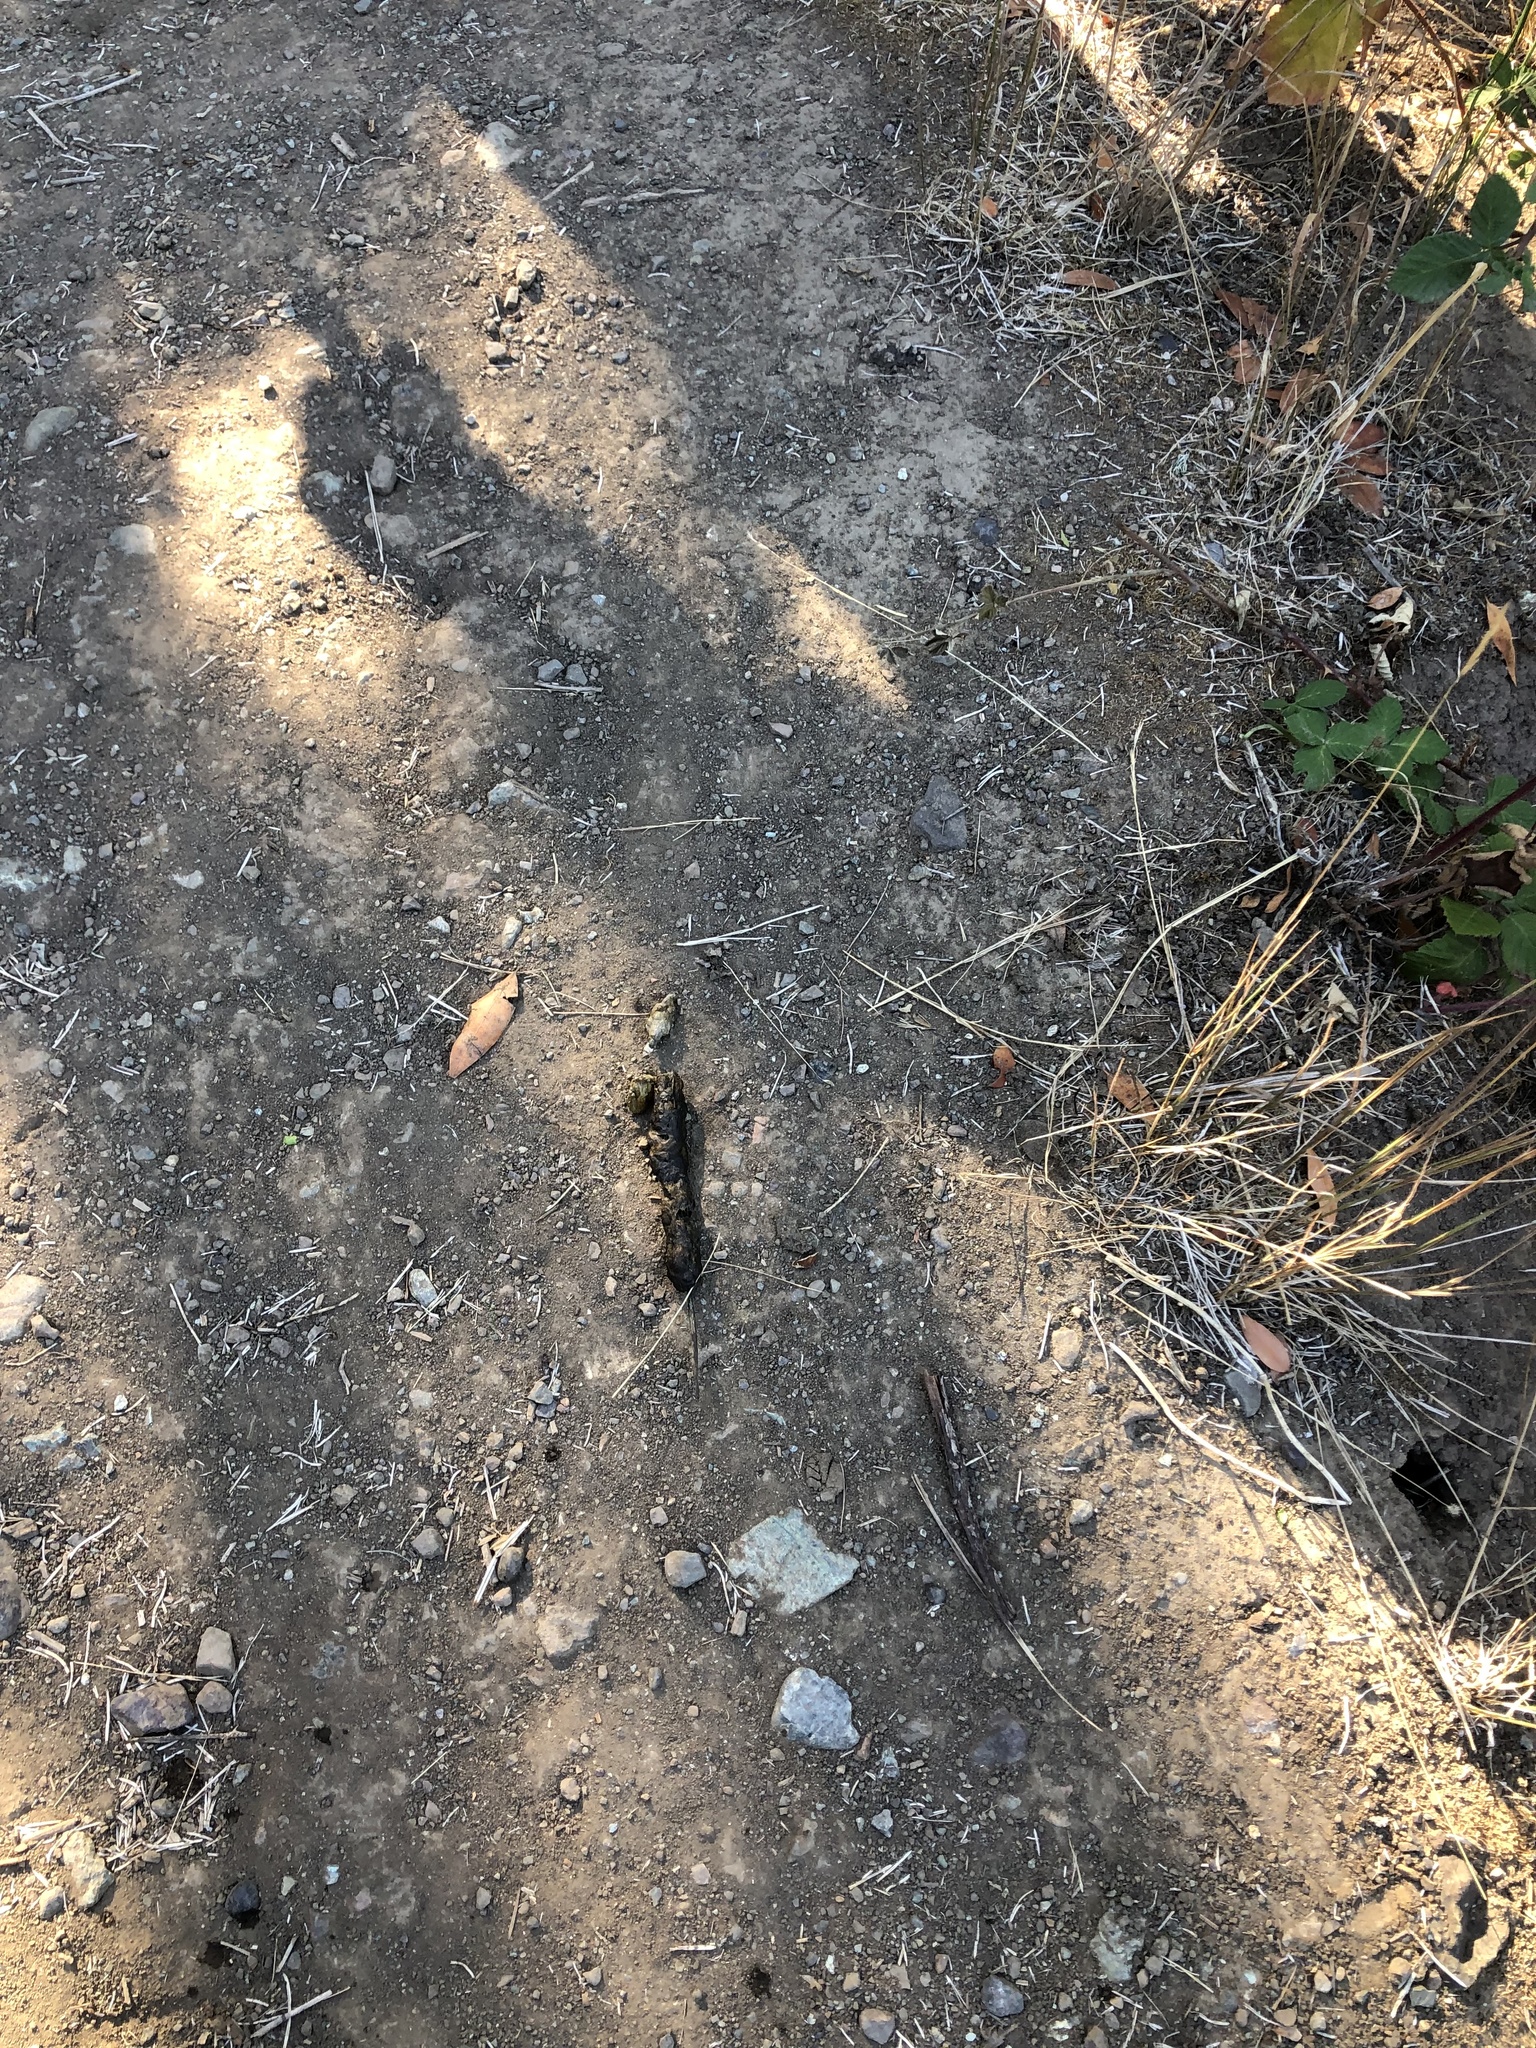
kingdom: Animalia
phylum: Chordata
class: Mammalia
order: Carnivora
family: Canidae
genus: Canis
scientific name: Canis latrans
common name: Coyote
